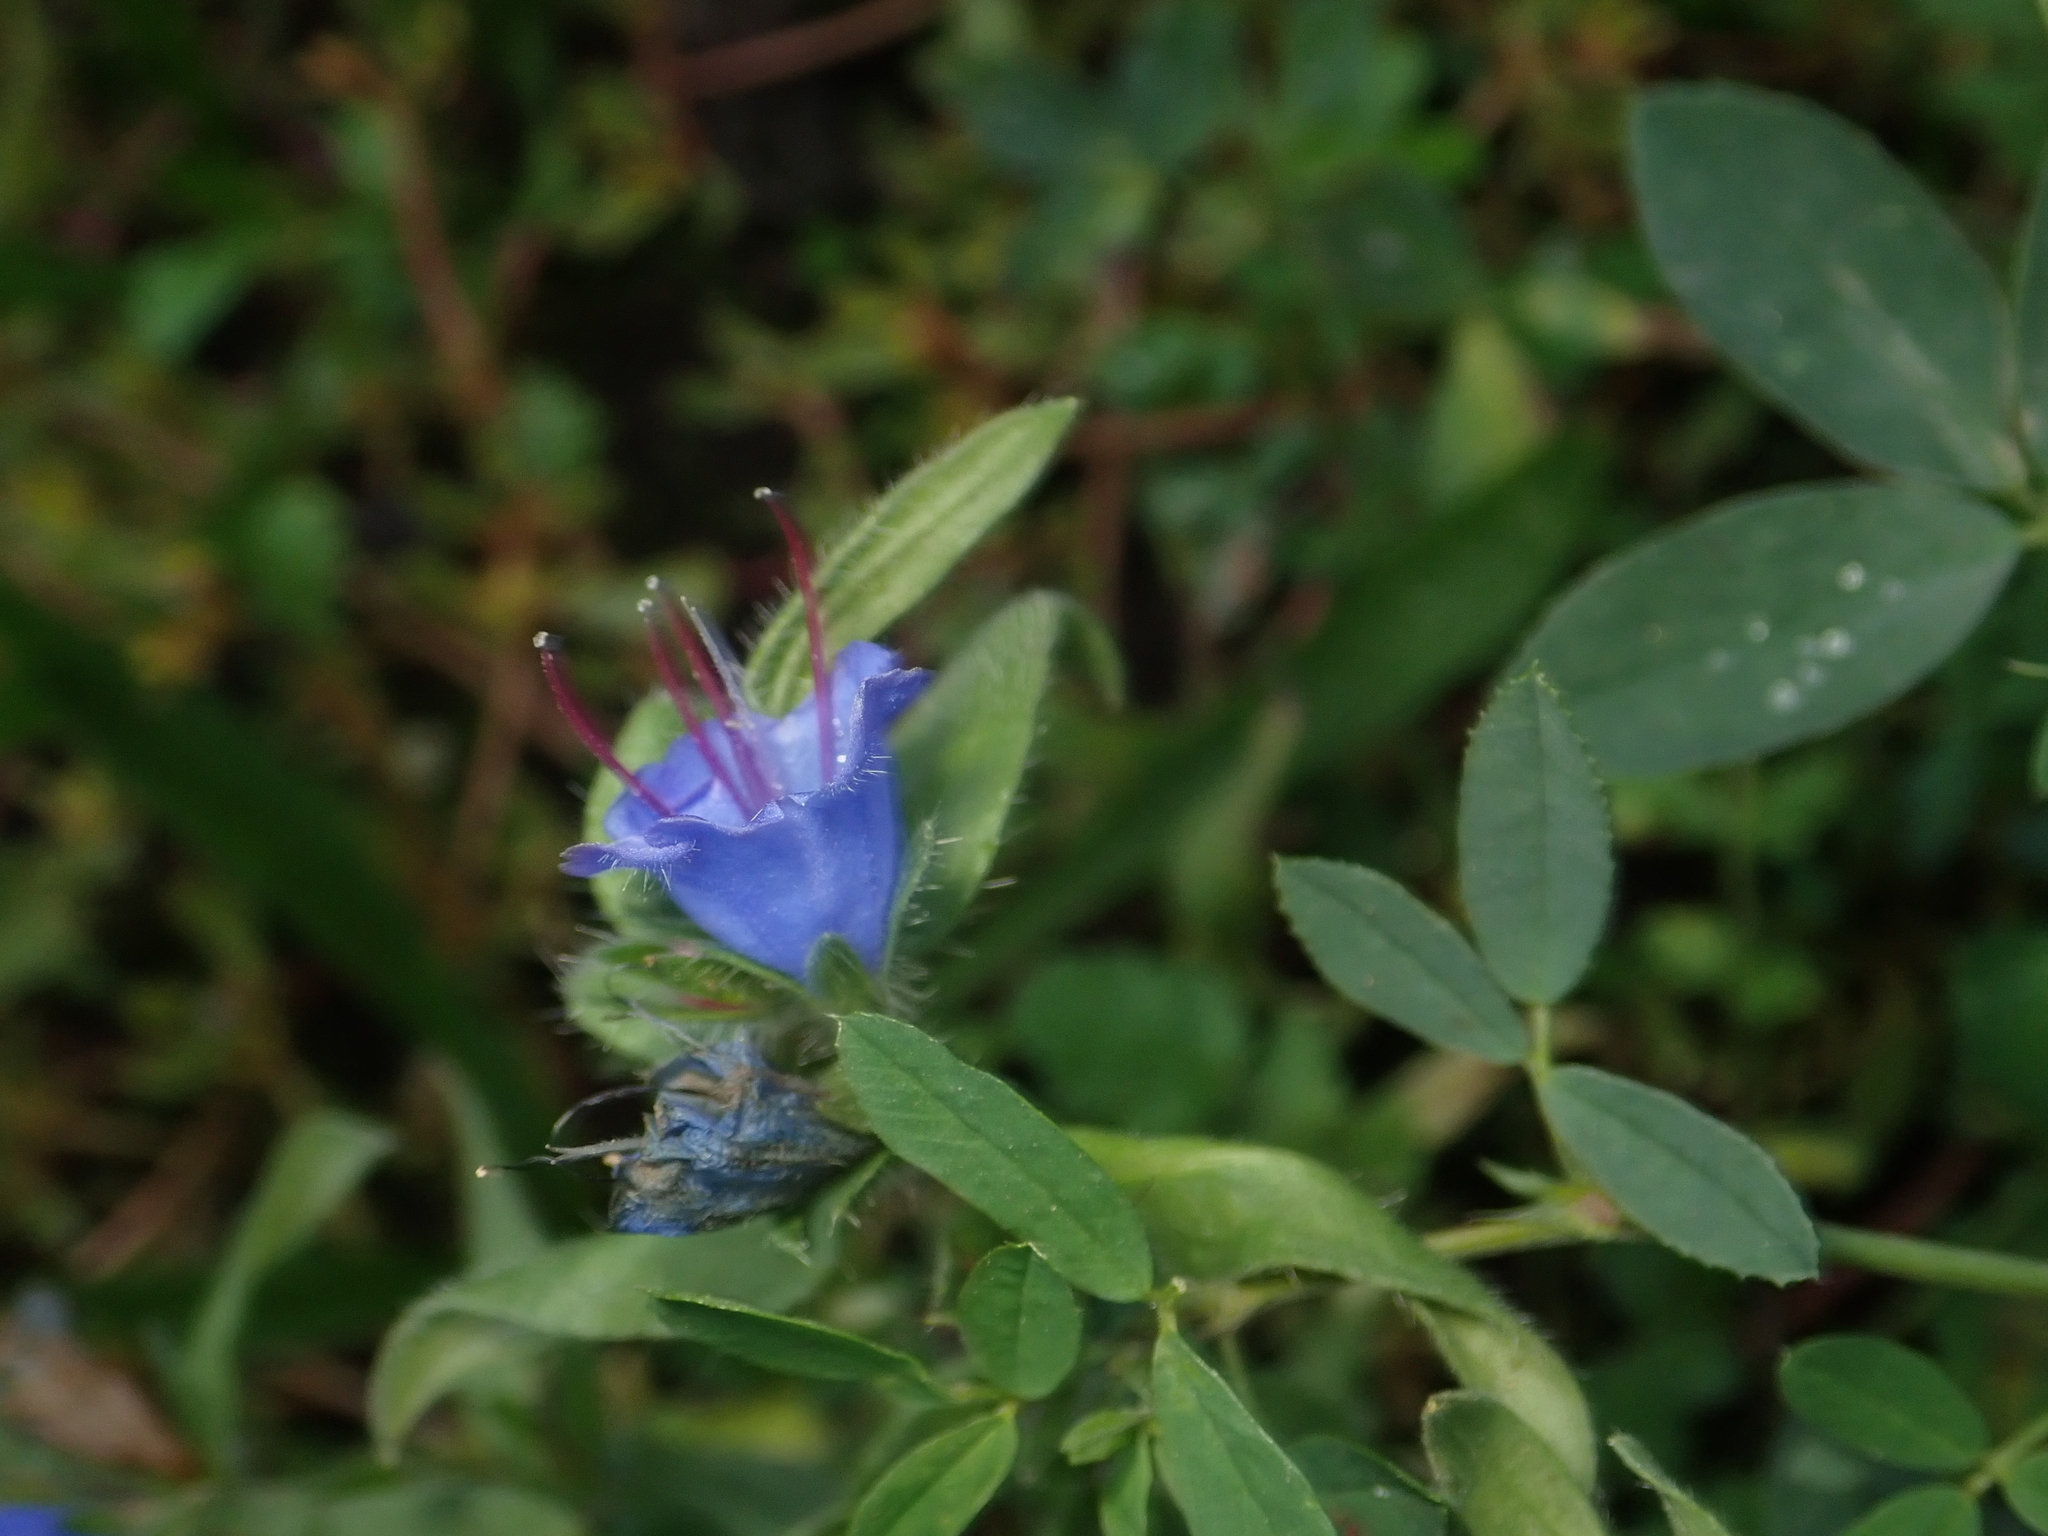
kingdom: Plantae
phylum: Tracheophyta
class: Magnoliopsida
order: Boraginales
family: Boraginaceae
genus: Echium
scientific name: Echium vulgare
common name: Common viper's bugloss
